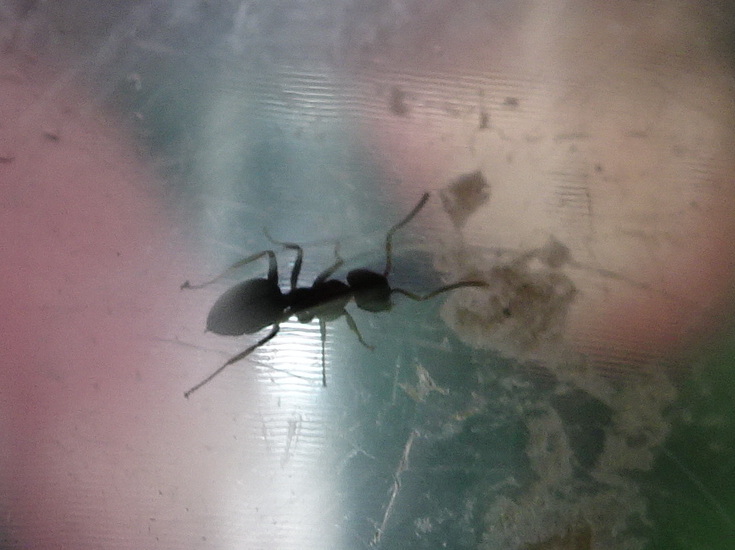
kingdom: Animalia
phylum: Arthropoda
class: Insecta
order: Hymenoptera
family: Formicidae
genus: Lasius
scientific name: Lasius americanus
